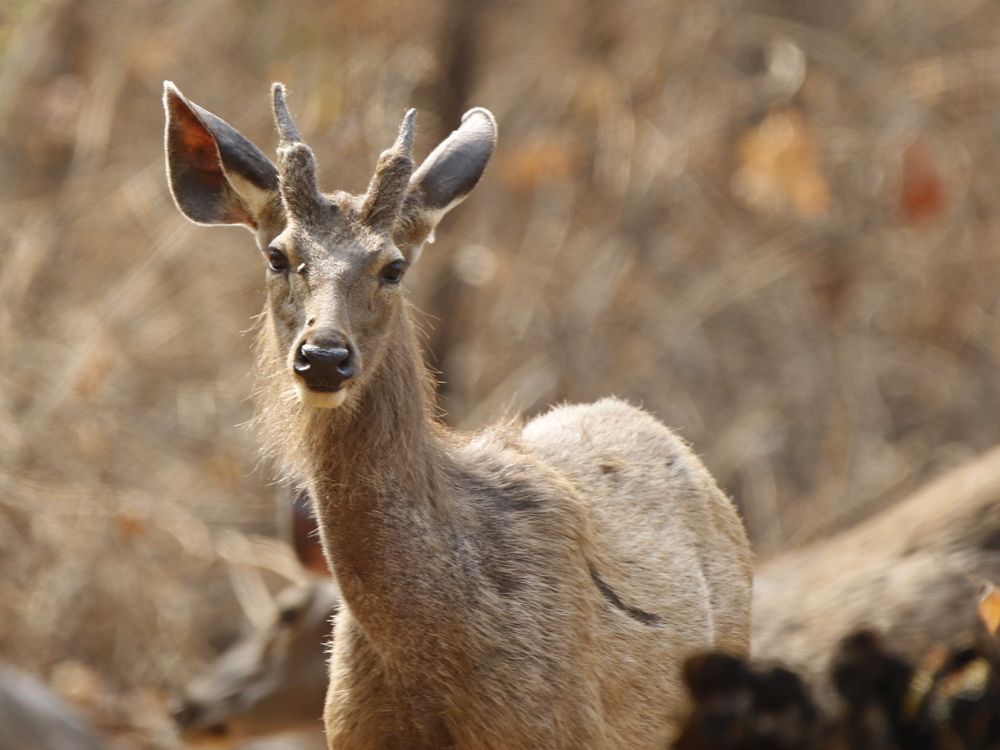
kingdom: Animalia
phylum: Chordata
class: Mammalia
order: Artiodactyla
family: Cervidae
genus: Rusa
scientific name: Rusa unicolor
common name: Sambar
